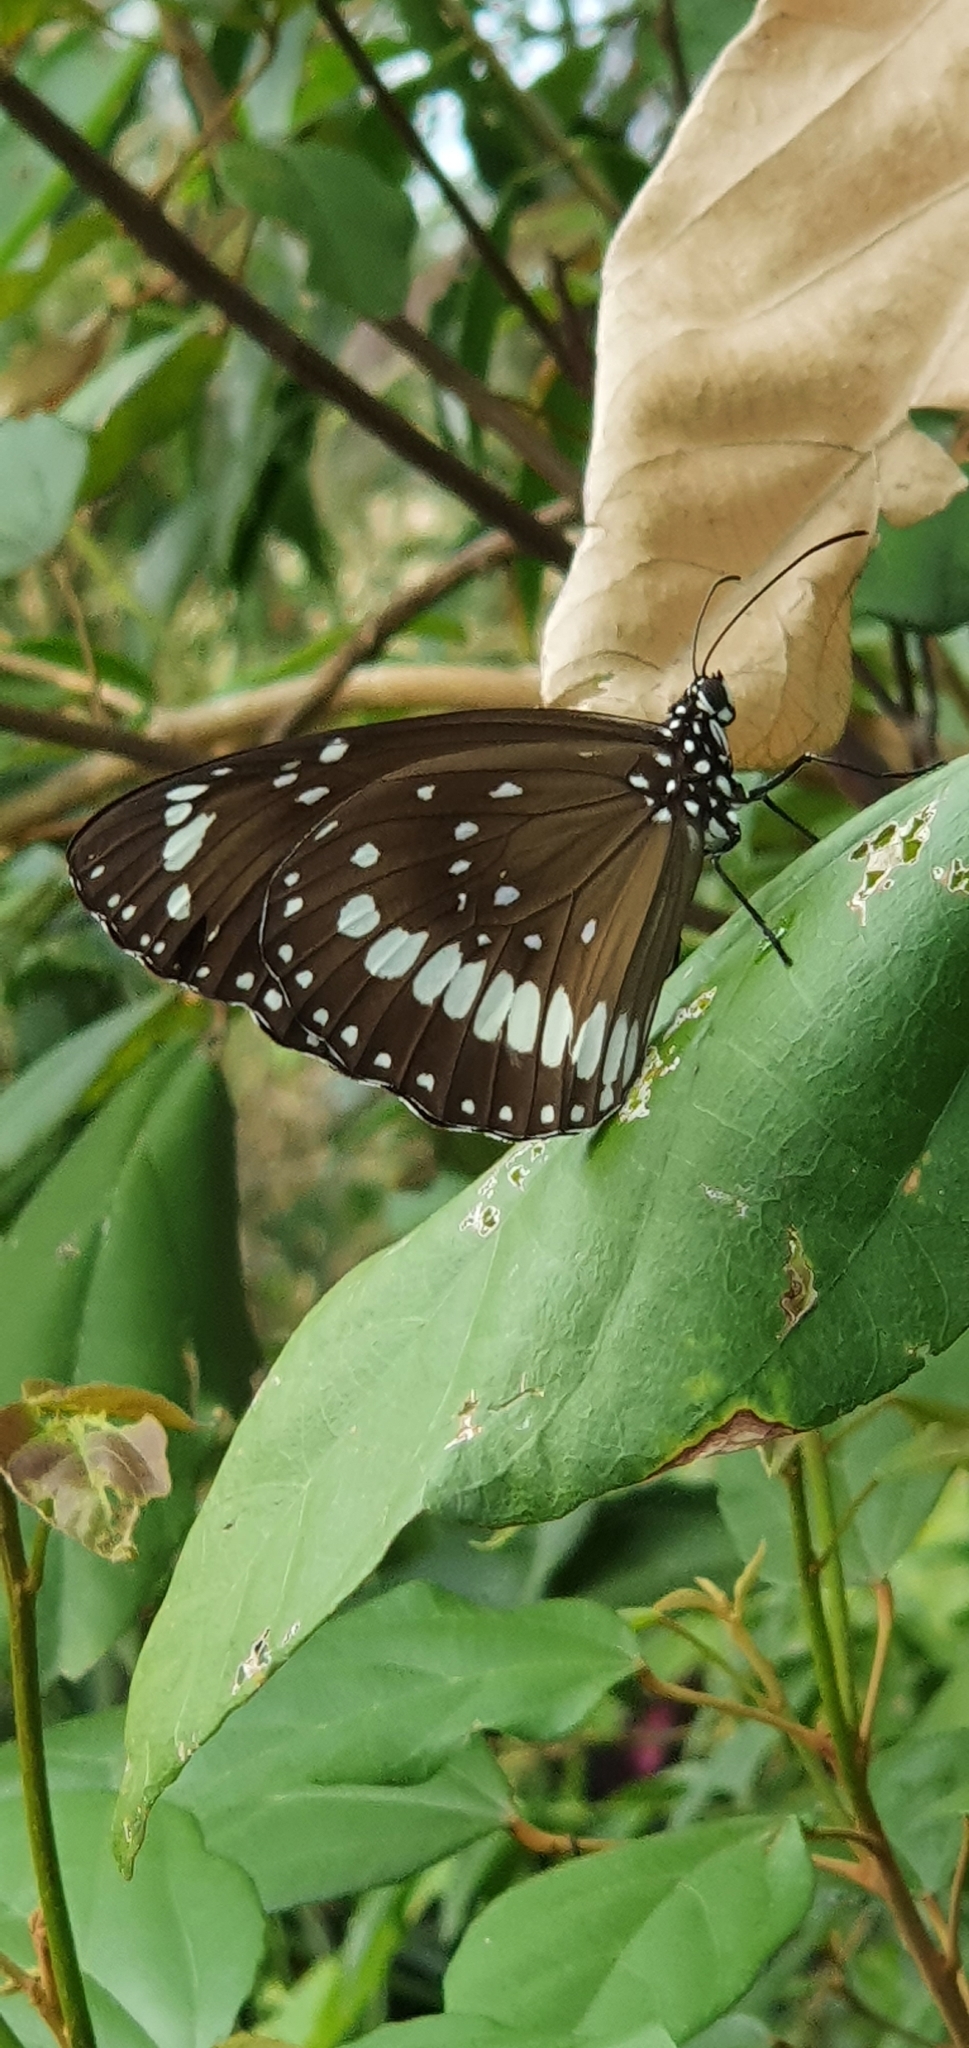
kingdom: Animalia
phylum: Arthropoda
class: Insecta
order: Lepidoptera
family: Nymphalidae
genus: Euploea
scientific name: Euploea core
